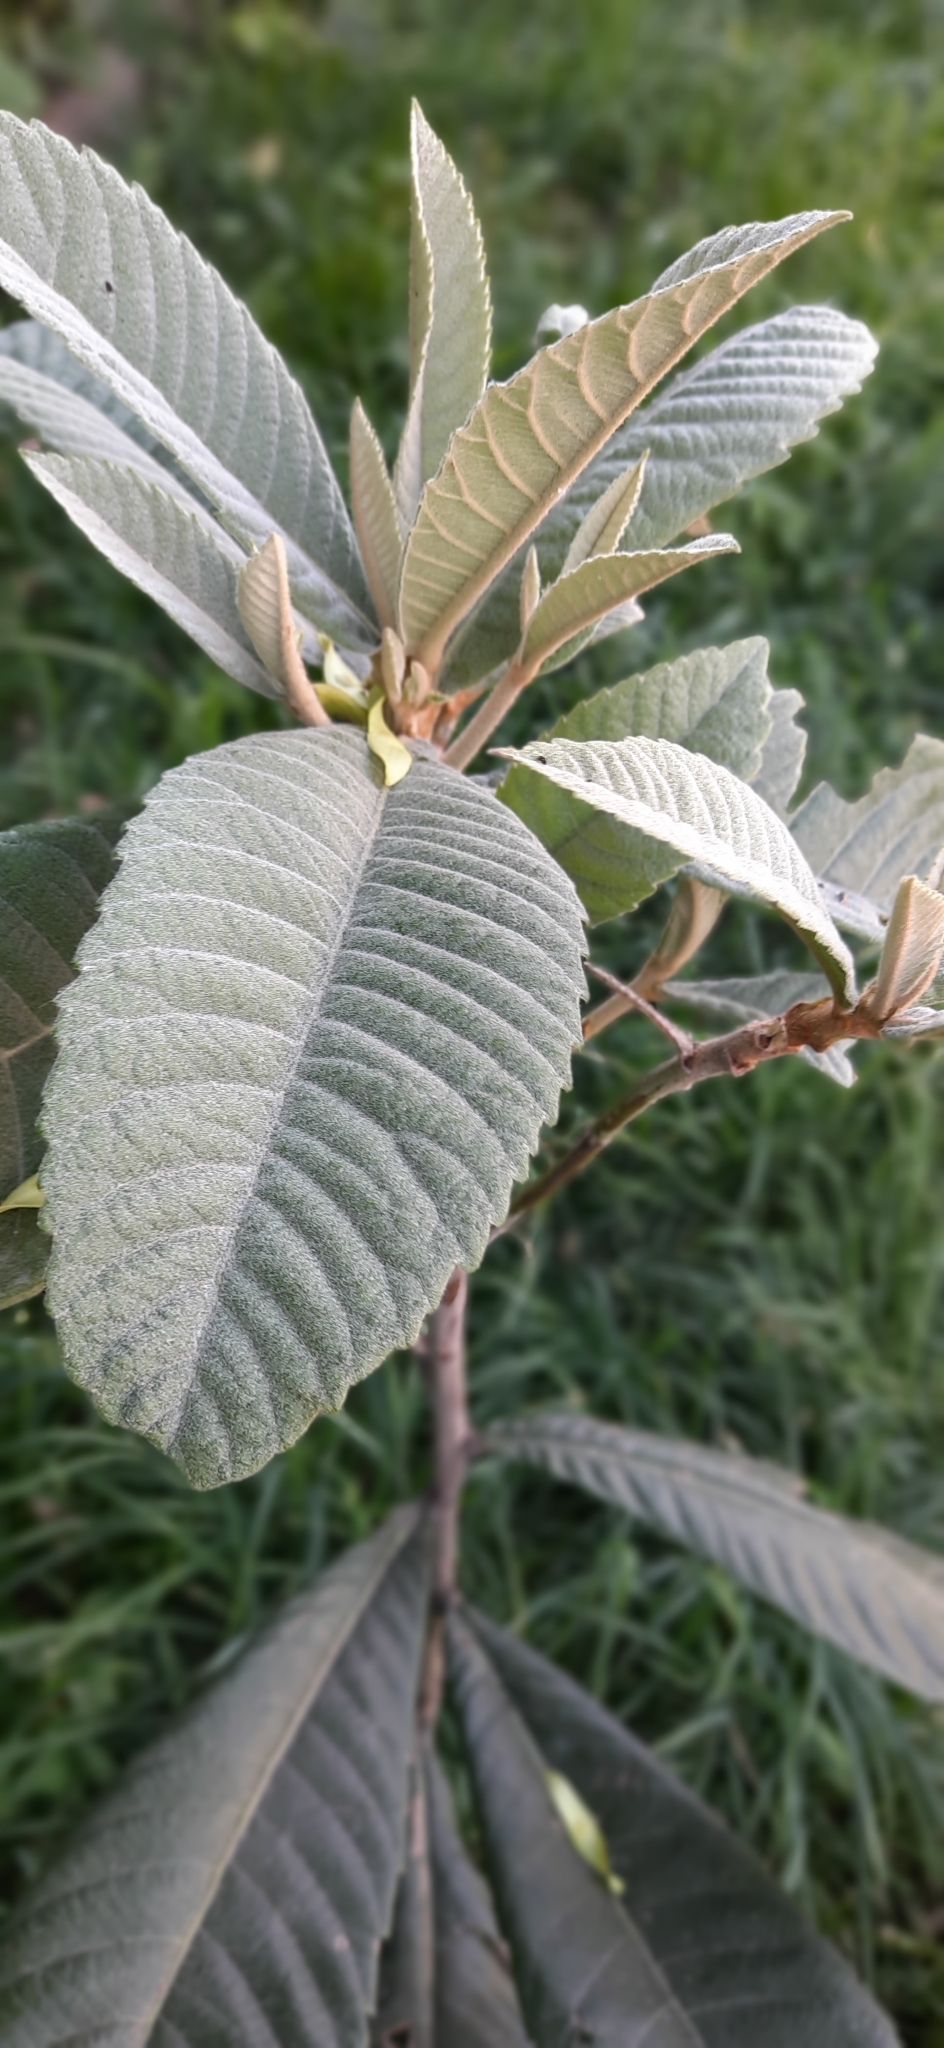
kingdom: Plantae
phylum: Tracheophyta
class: Magnoliopsida
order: Rosales
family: Rosaceae
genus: Rhaphiolepis
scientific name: Rhaphiolepis bibas
